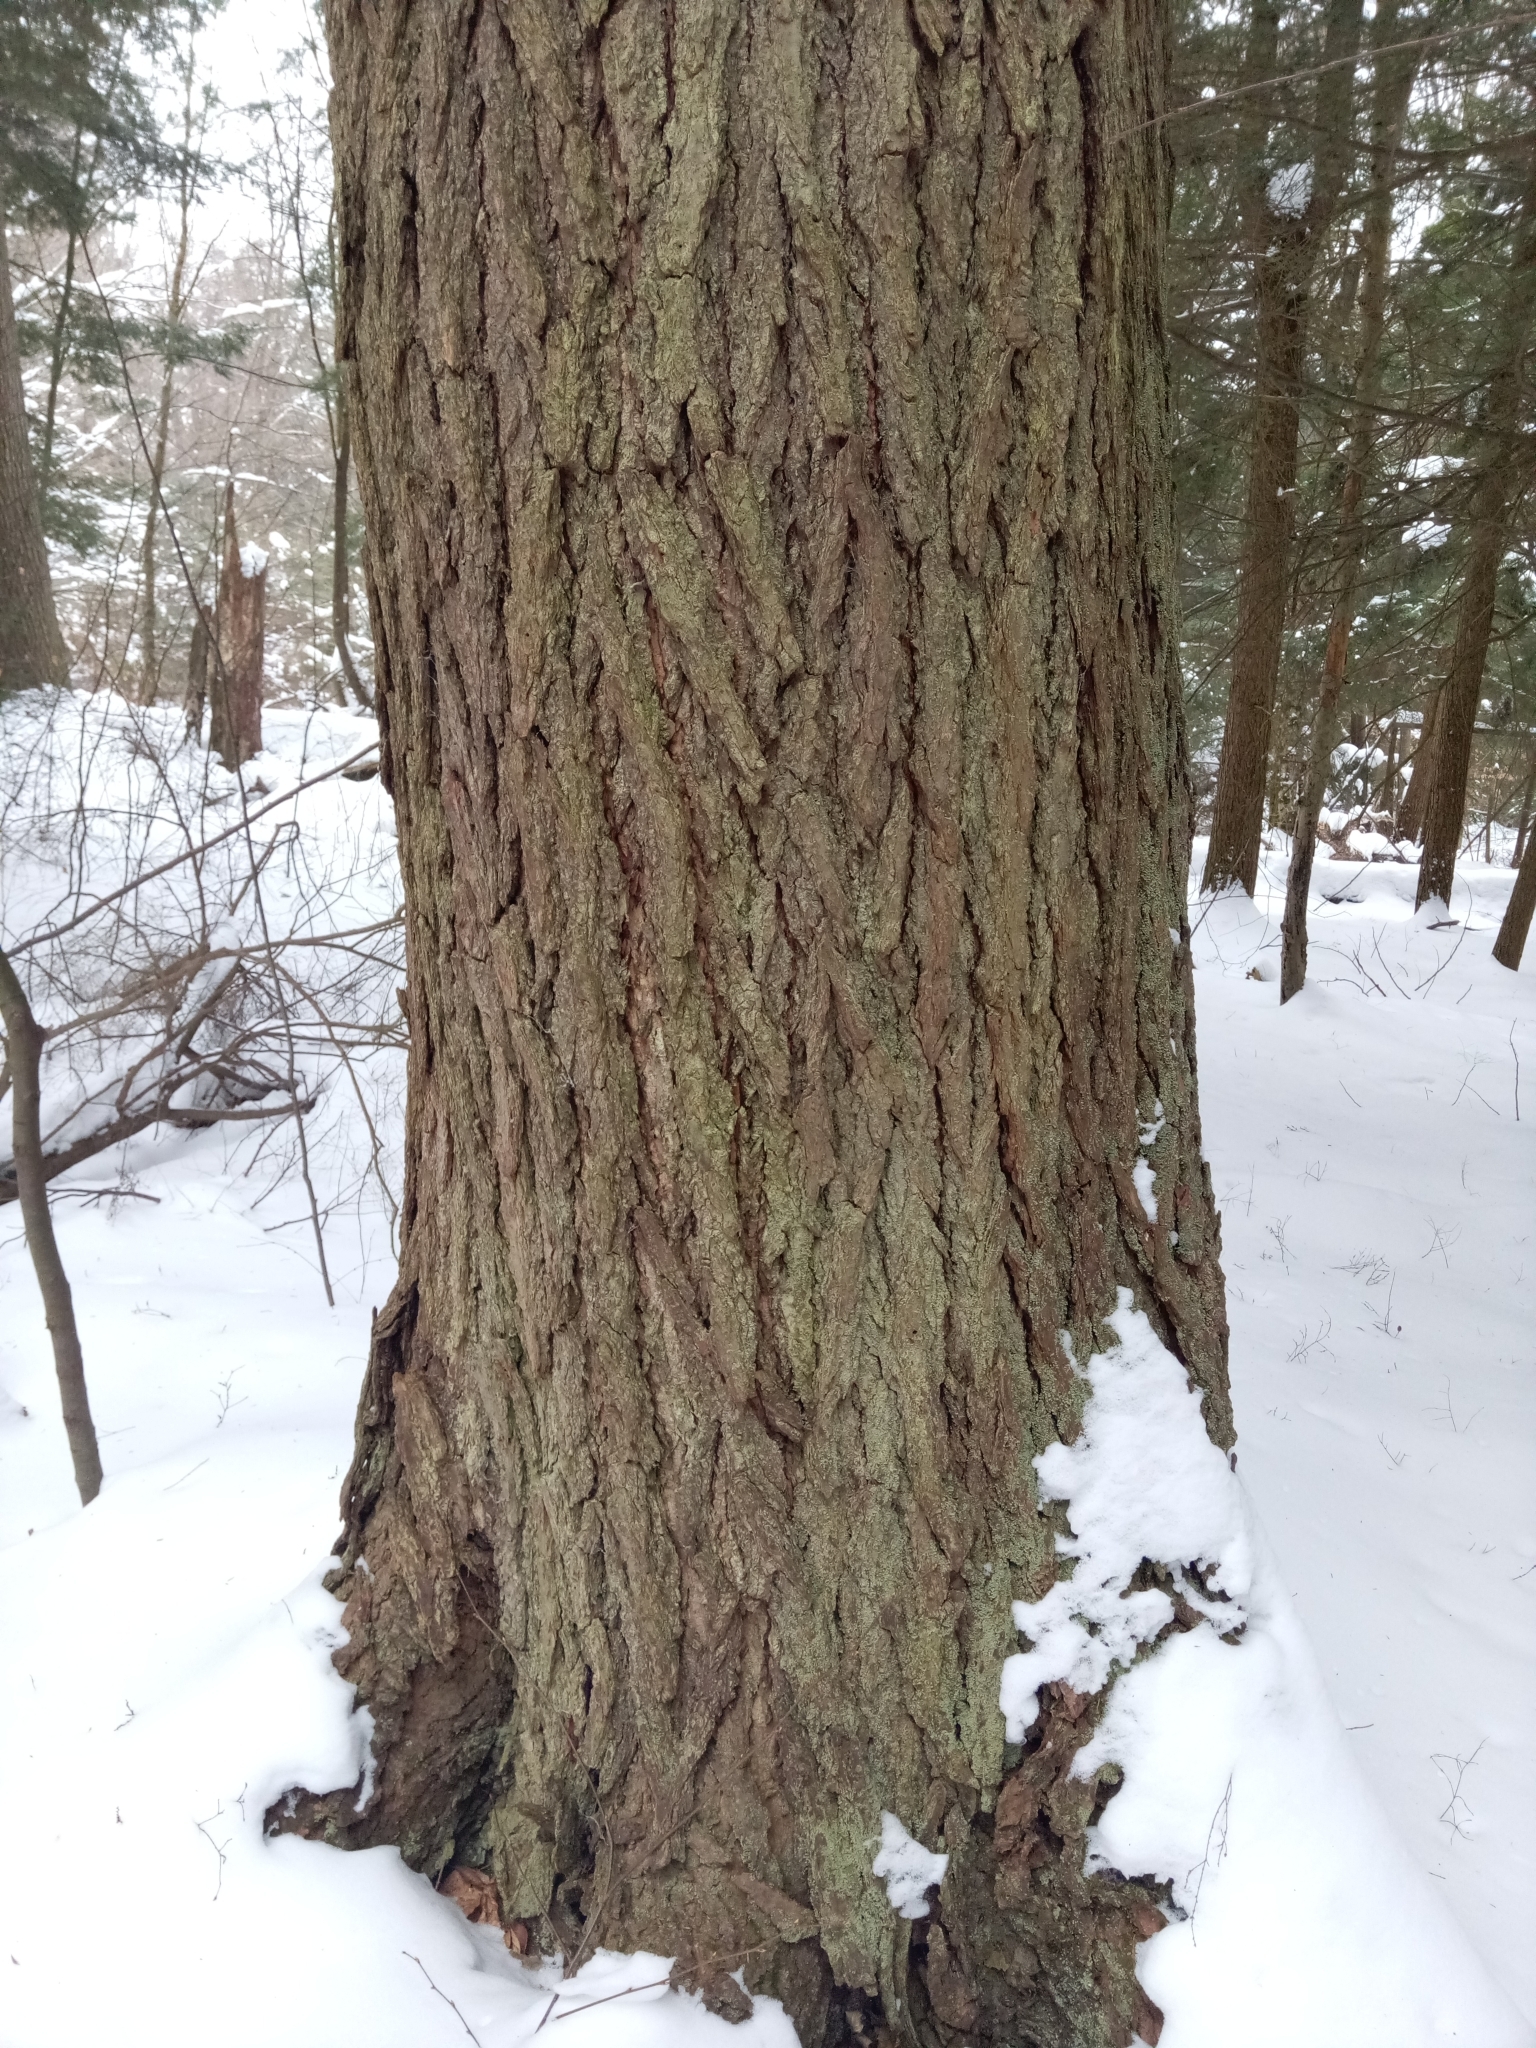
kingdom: Plantae
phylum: Tracheophyta
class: Pinopsida
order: Pinales
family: Pinaceae
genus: Tsuga
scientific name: Tsuga canadensis
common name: Eastern hemlock
